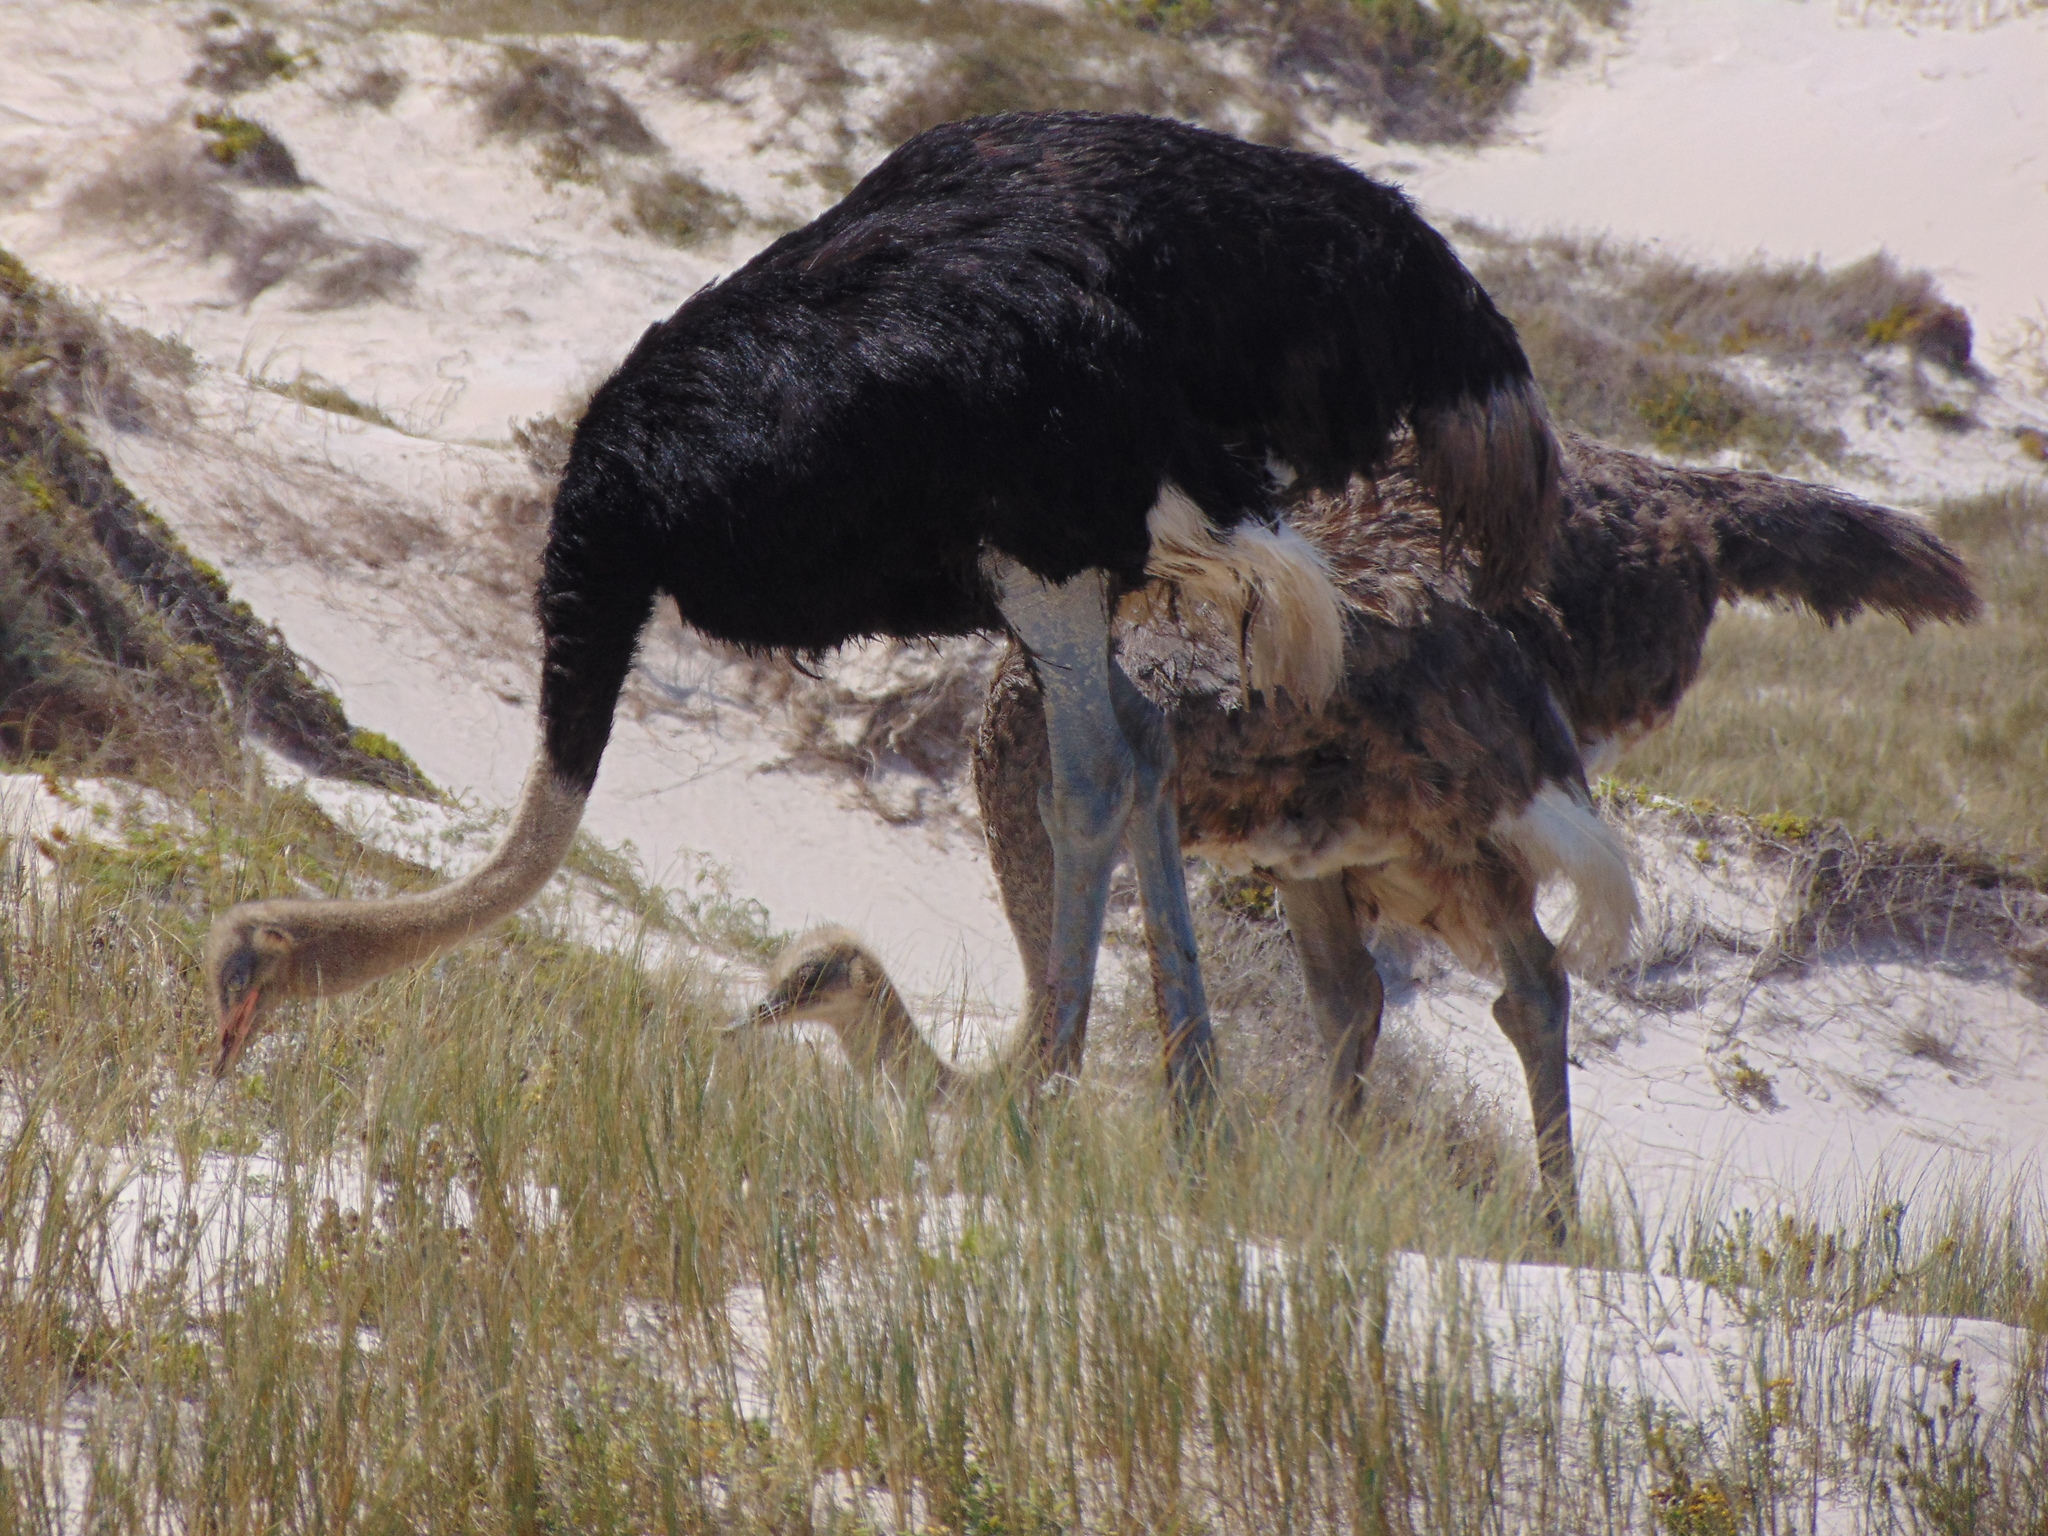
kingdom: Animalia
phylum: Chordata
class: Aves
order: Struthioniformes
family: Struthionidae
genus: Struthio
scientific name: Struthio camelus
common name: Common ostrich
